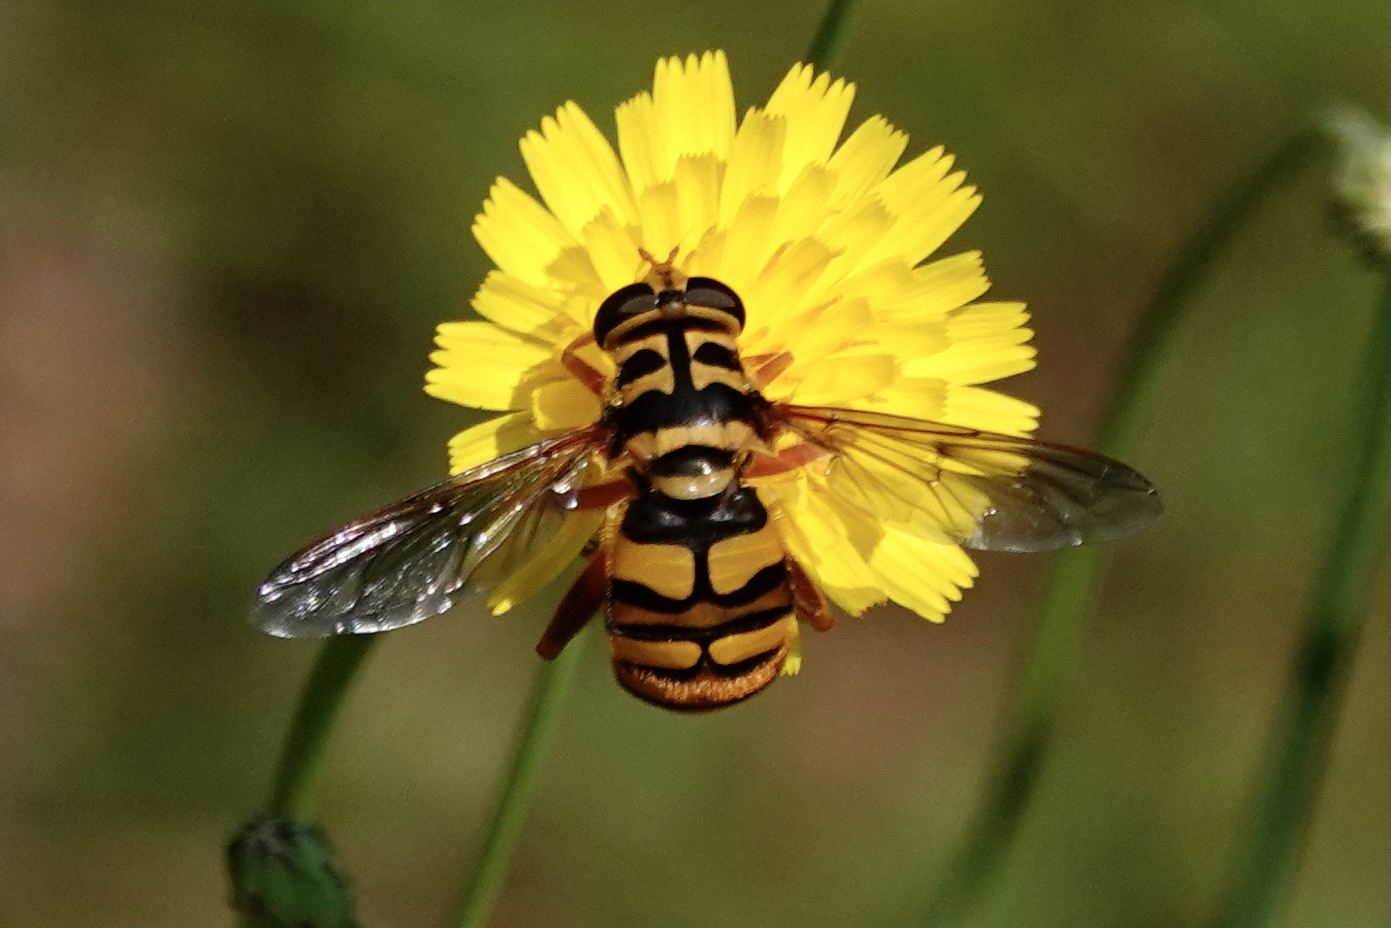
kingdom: Animalia
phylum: Arthropoda
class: Insecta
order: Diptera
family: Syrphidae
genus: Milesia
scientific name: Milesia virginiensis
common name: Virginia giant
